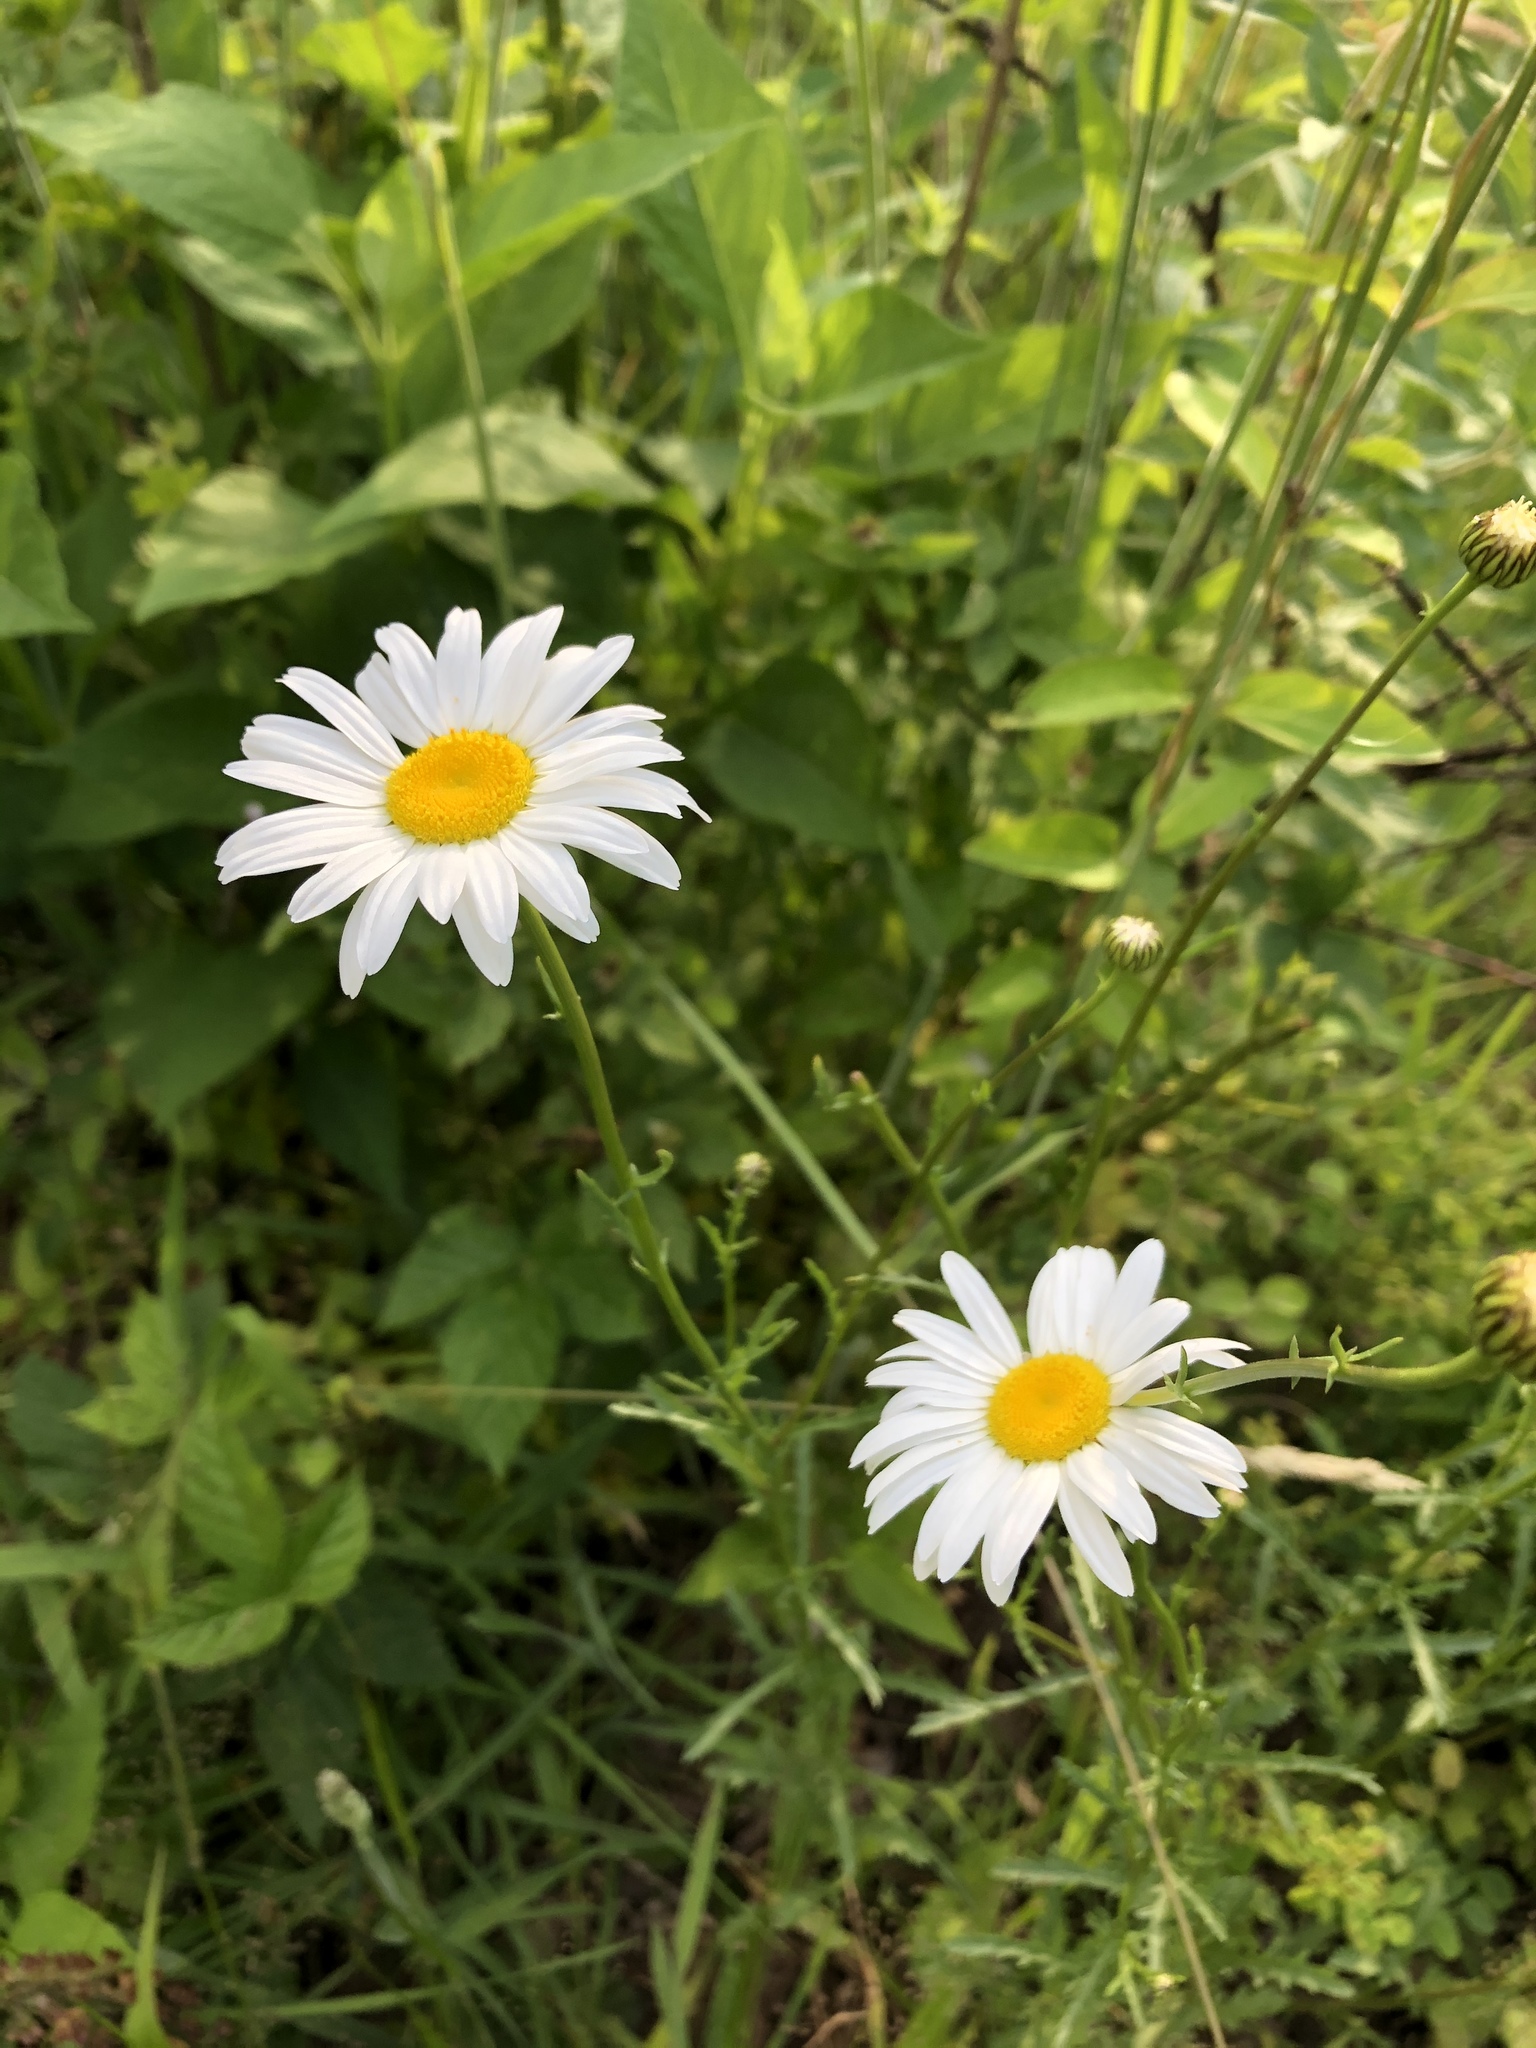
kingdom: Plantae
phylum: Tracheophyta
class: Magnoliopsida
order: Asterales
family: Asteraceae
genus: Leucanthemum
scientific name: Leucanthemum vulgare
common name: Oxeye daisy
